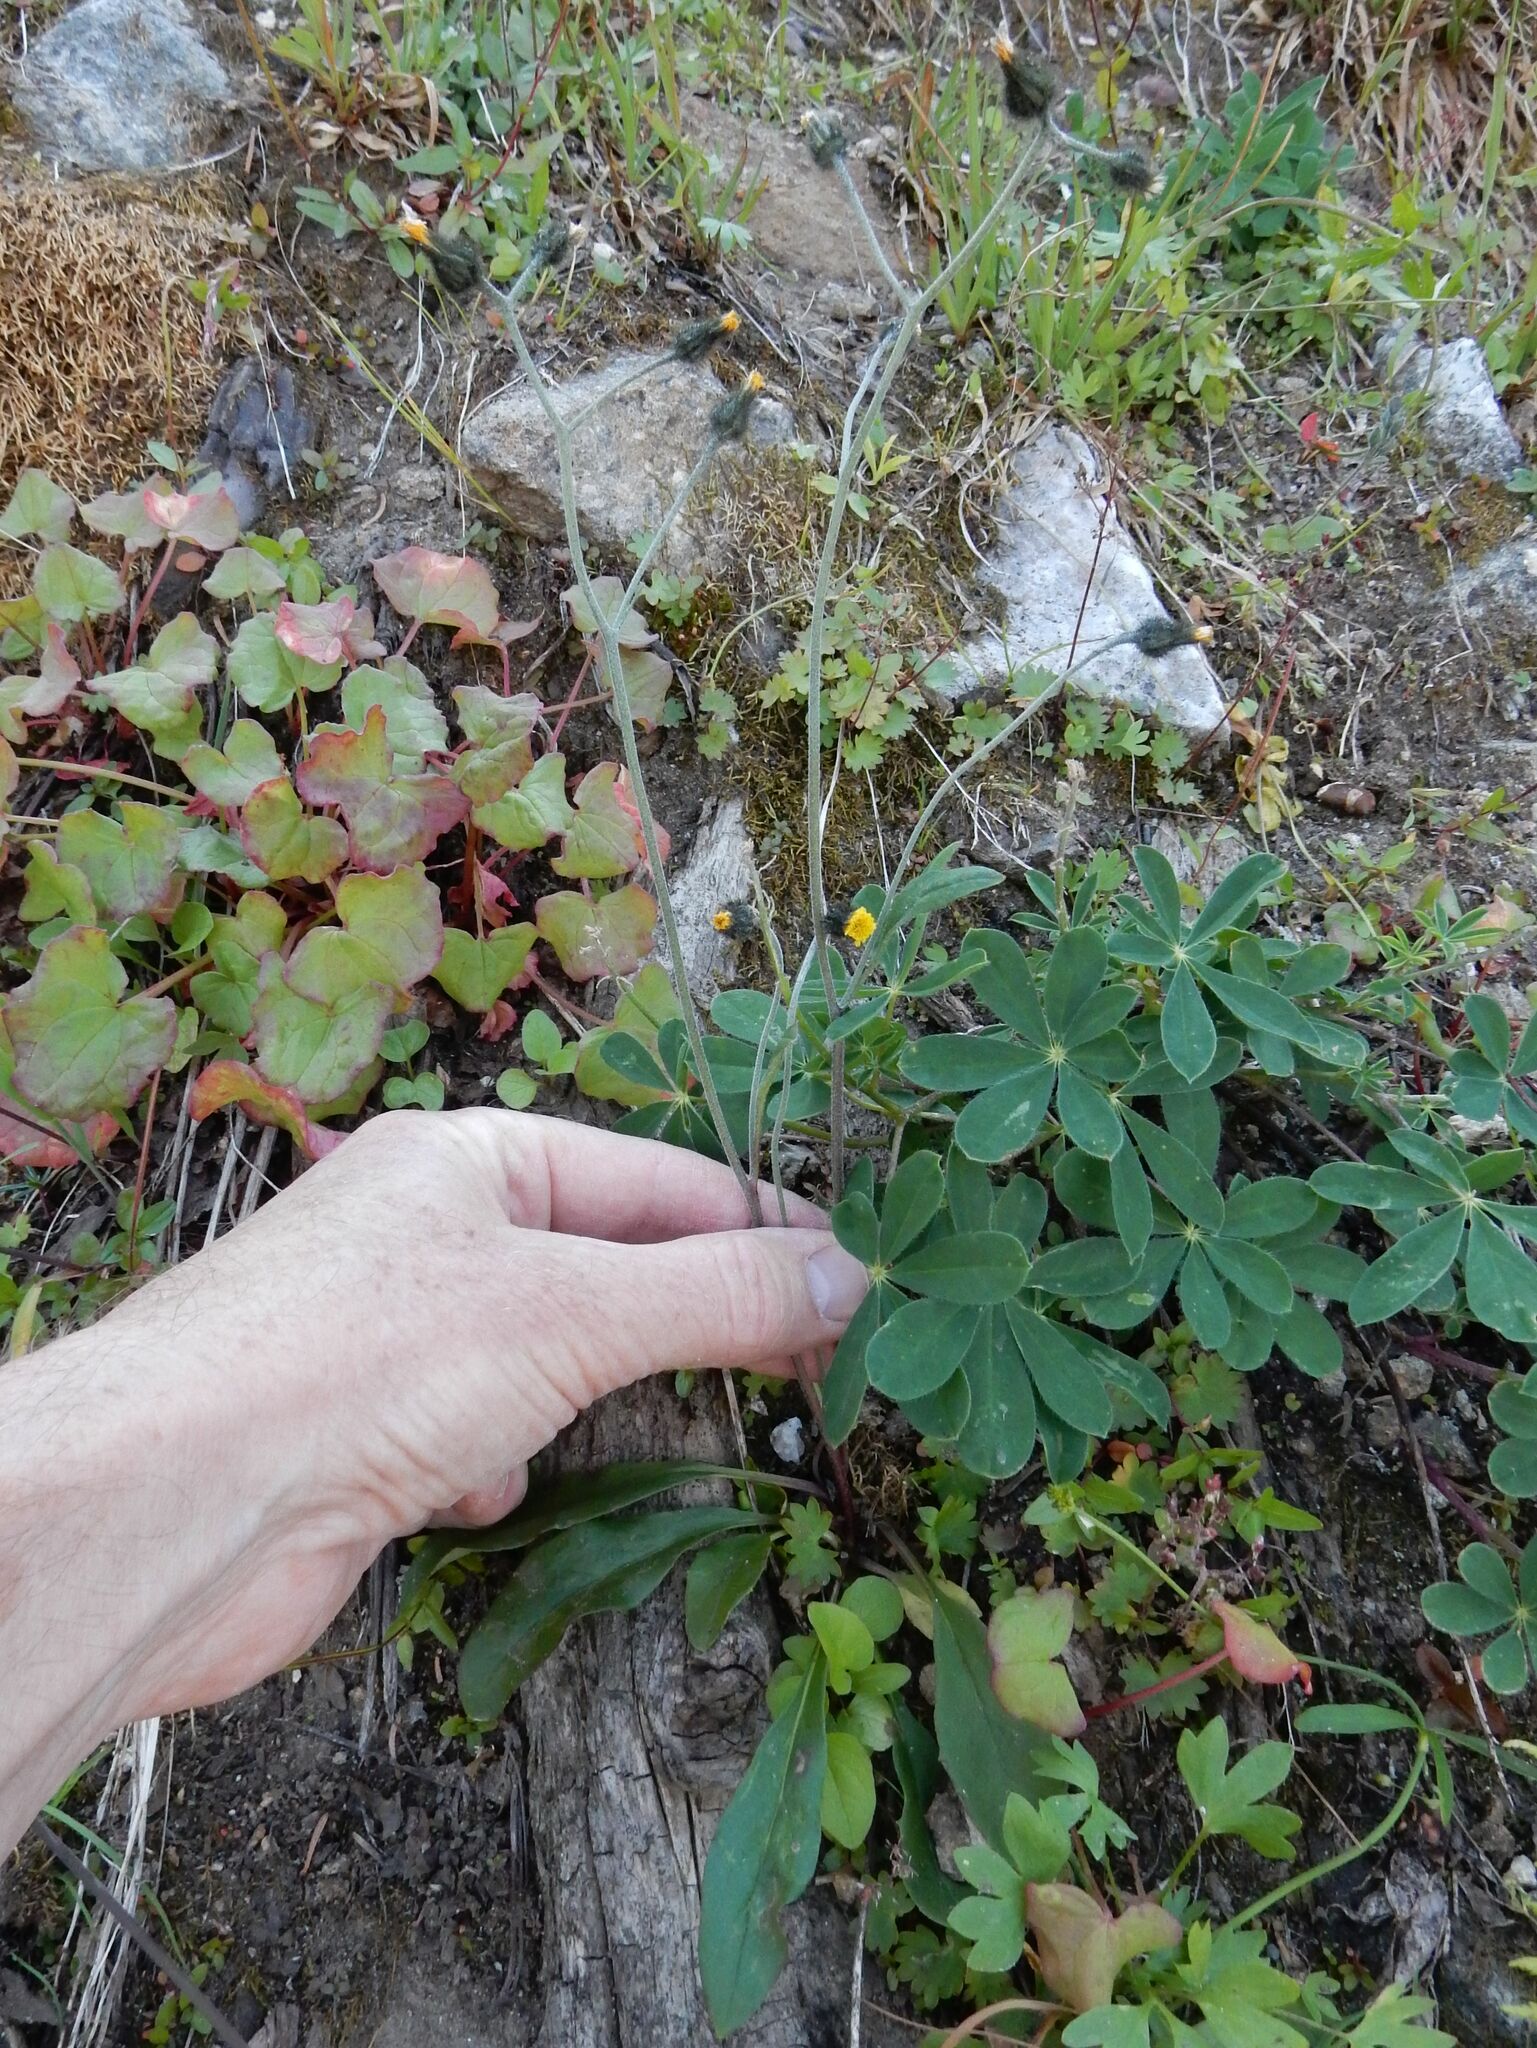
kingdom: Plantae
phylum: Tracheophyta
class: Magnoliopsida
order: Asterales
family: Asteraceae
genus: Hieracium
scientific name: Hieracium triste
